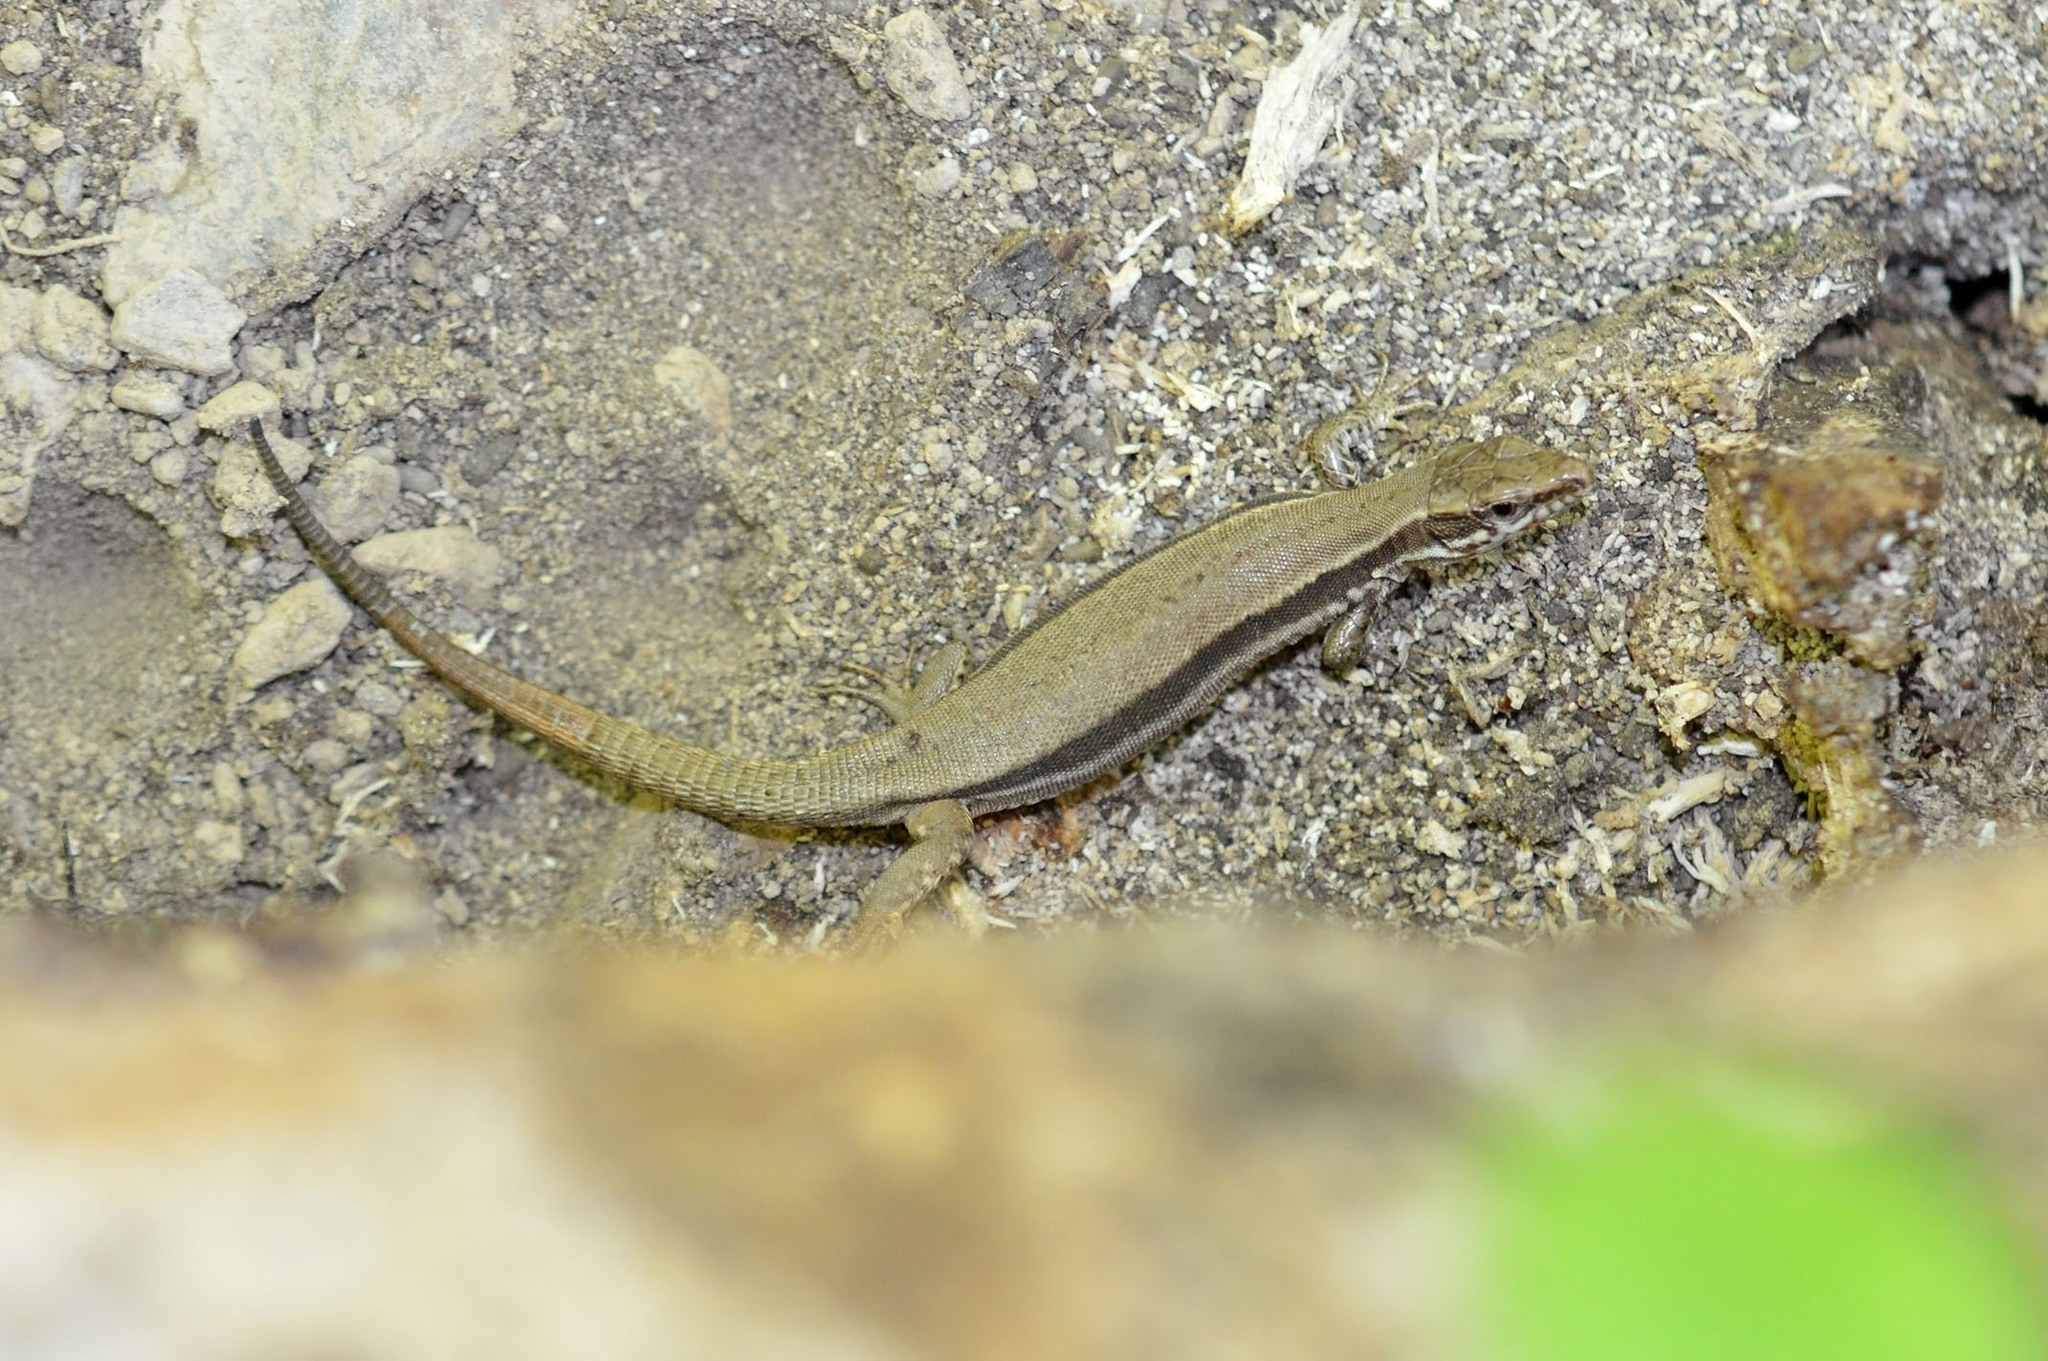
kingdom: Animalia
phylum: Chordata
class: Squamata
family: Lacertidae
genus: Podarcis
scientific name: Podarcis muralis
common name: Common wall lizard
